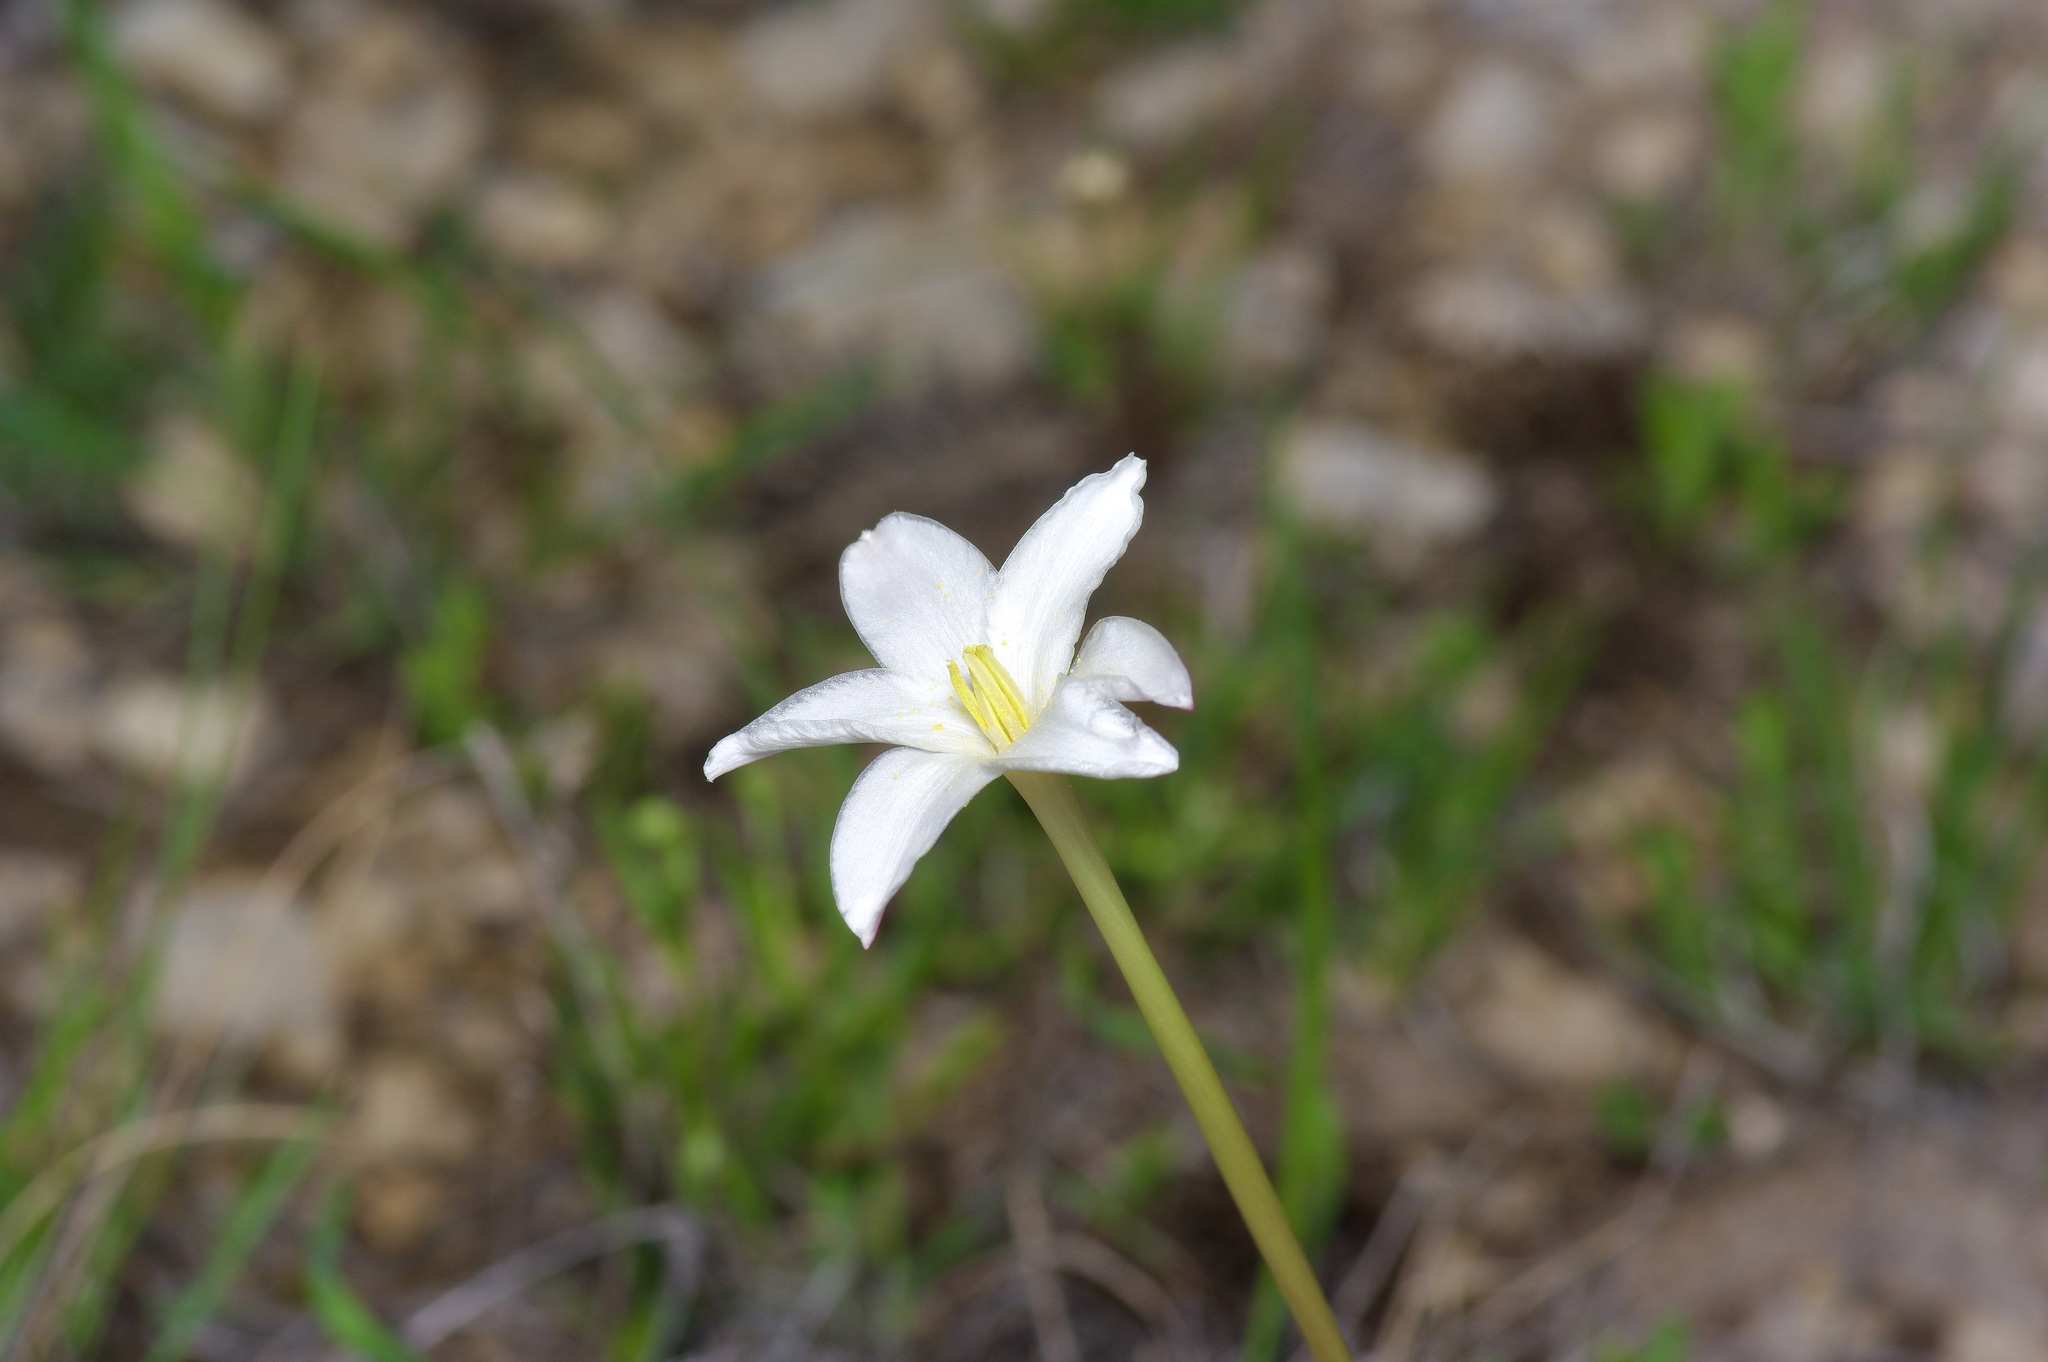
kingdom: Plantae
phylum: Tracheophyta
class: Liliopsida
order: Asparagales
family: Amaryllidaceae
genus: Zephyranthes
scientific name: Zephyranthes chlorosolen
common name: Evening rain-lily
